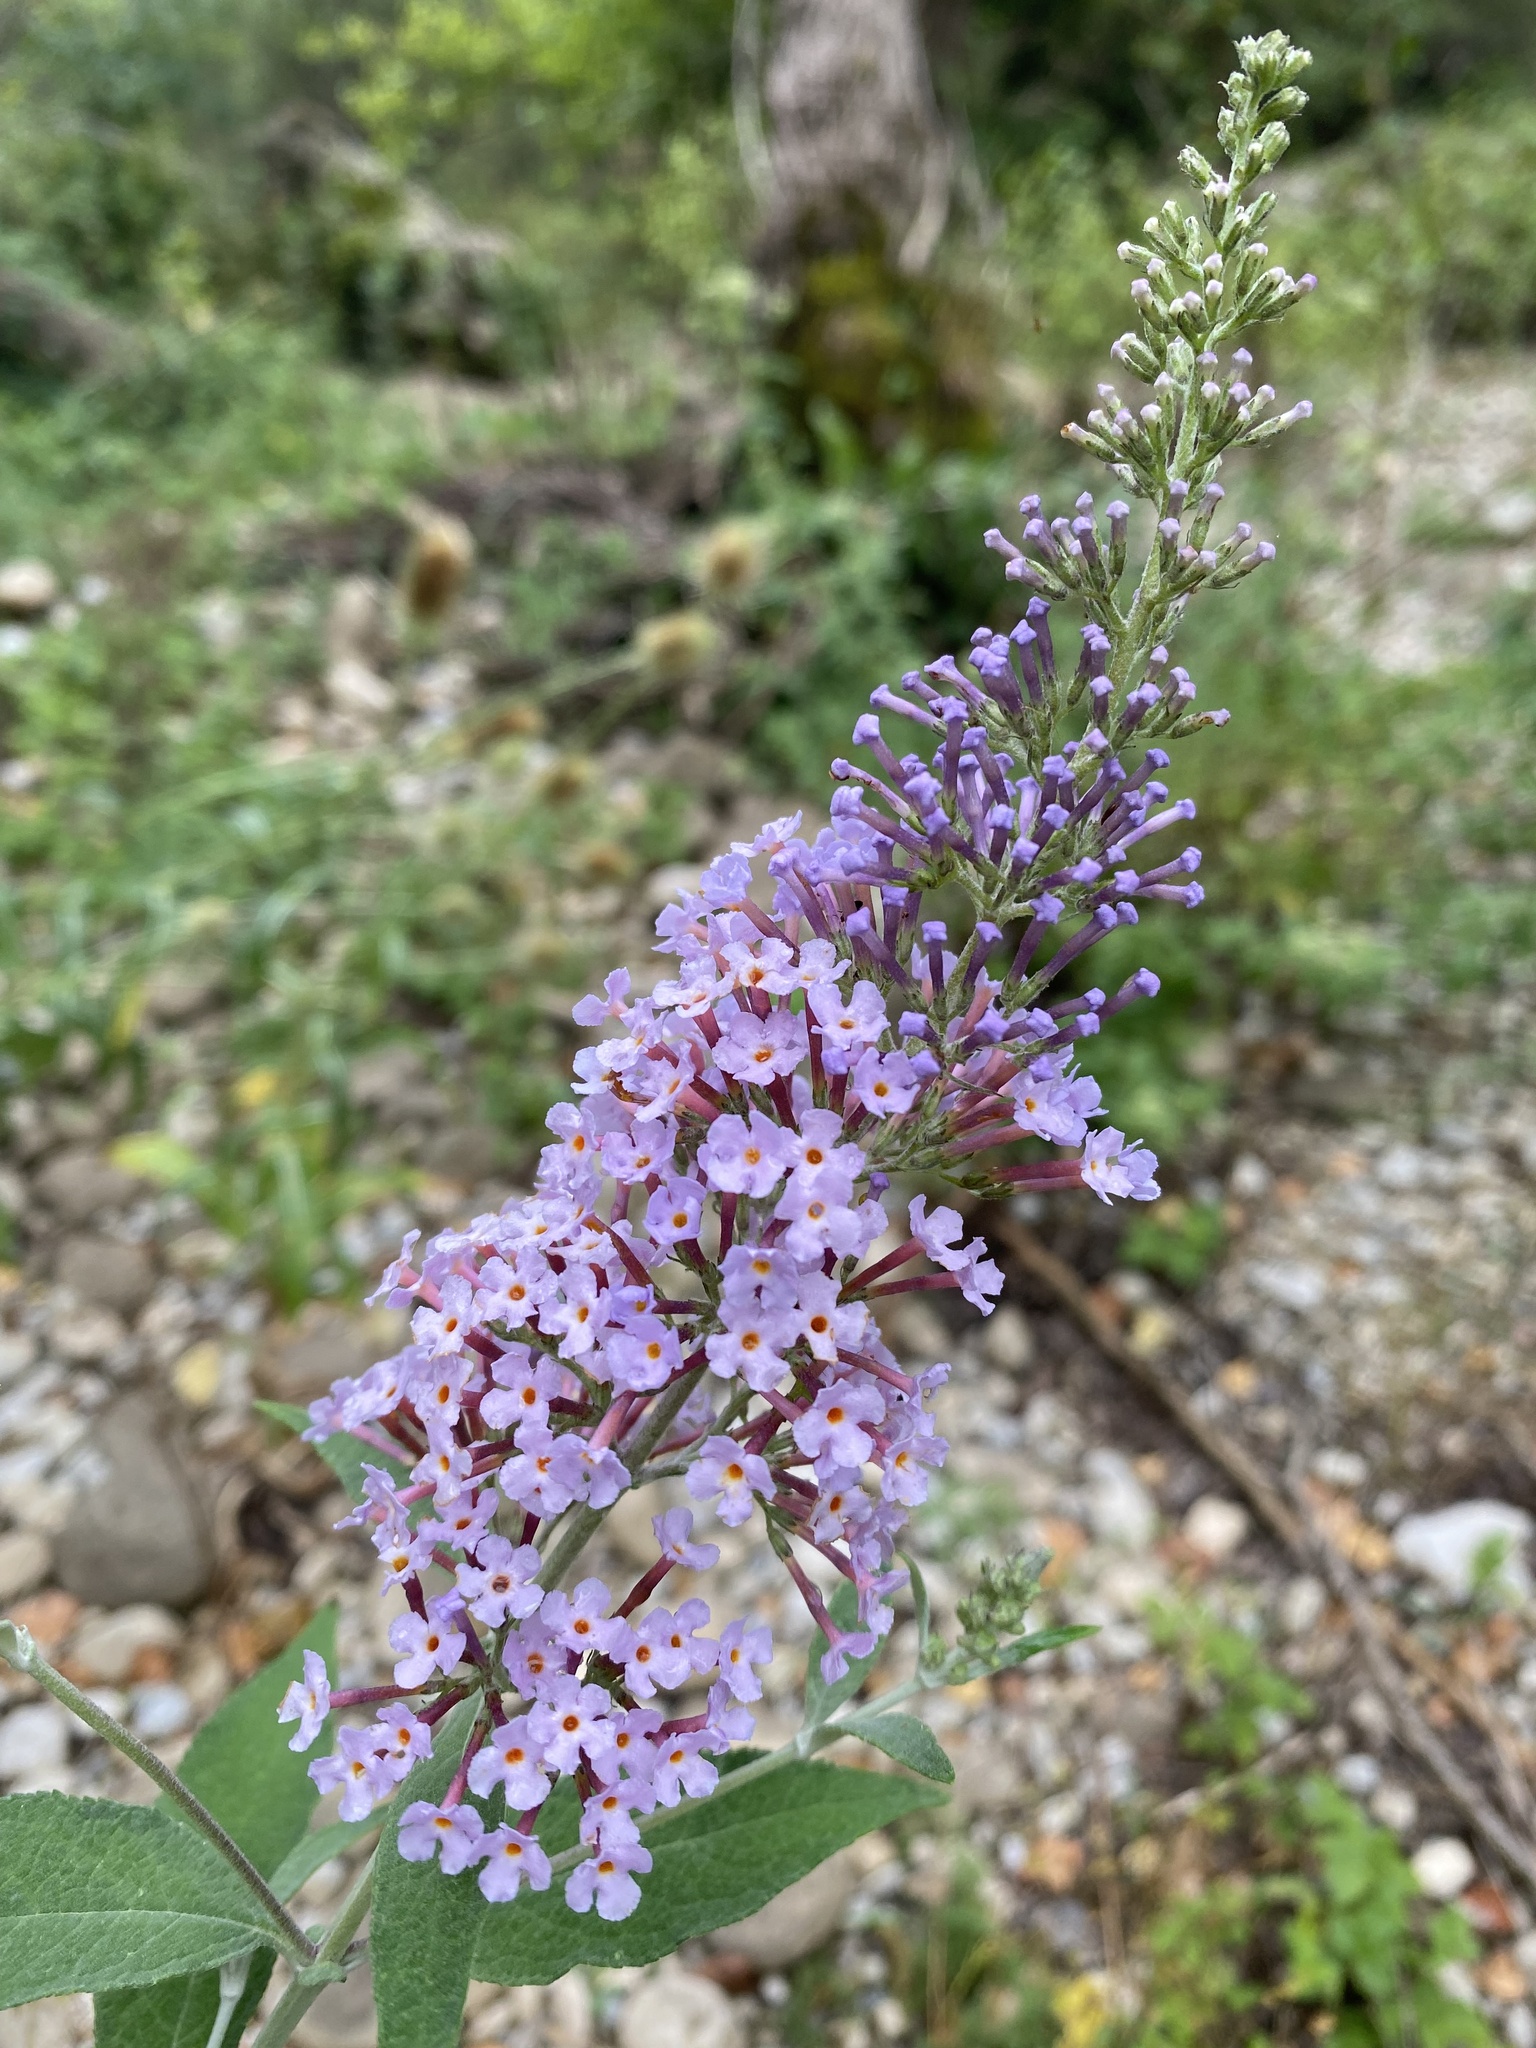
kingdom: Plantae
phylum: Tracheophyta
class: Magnoliopsida
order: Lamiales
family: Scrophulariaceae
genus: Buddleja
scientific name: Buddleja davidii
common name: Butterfly-bush
